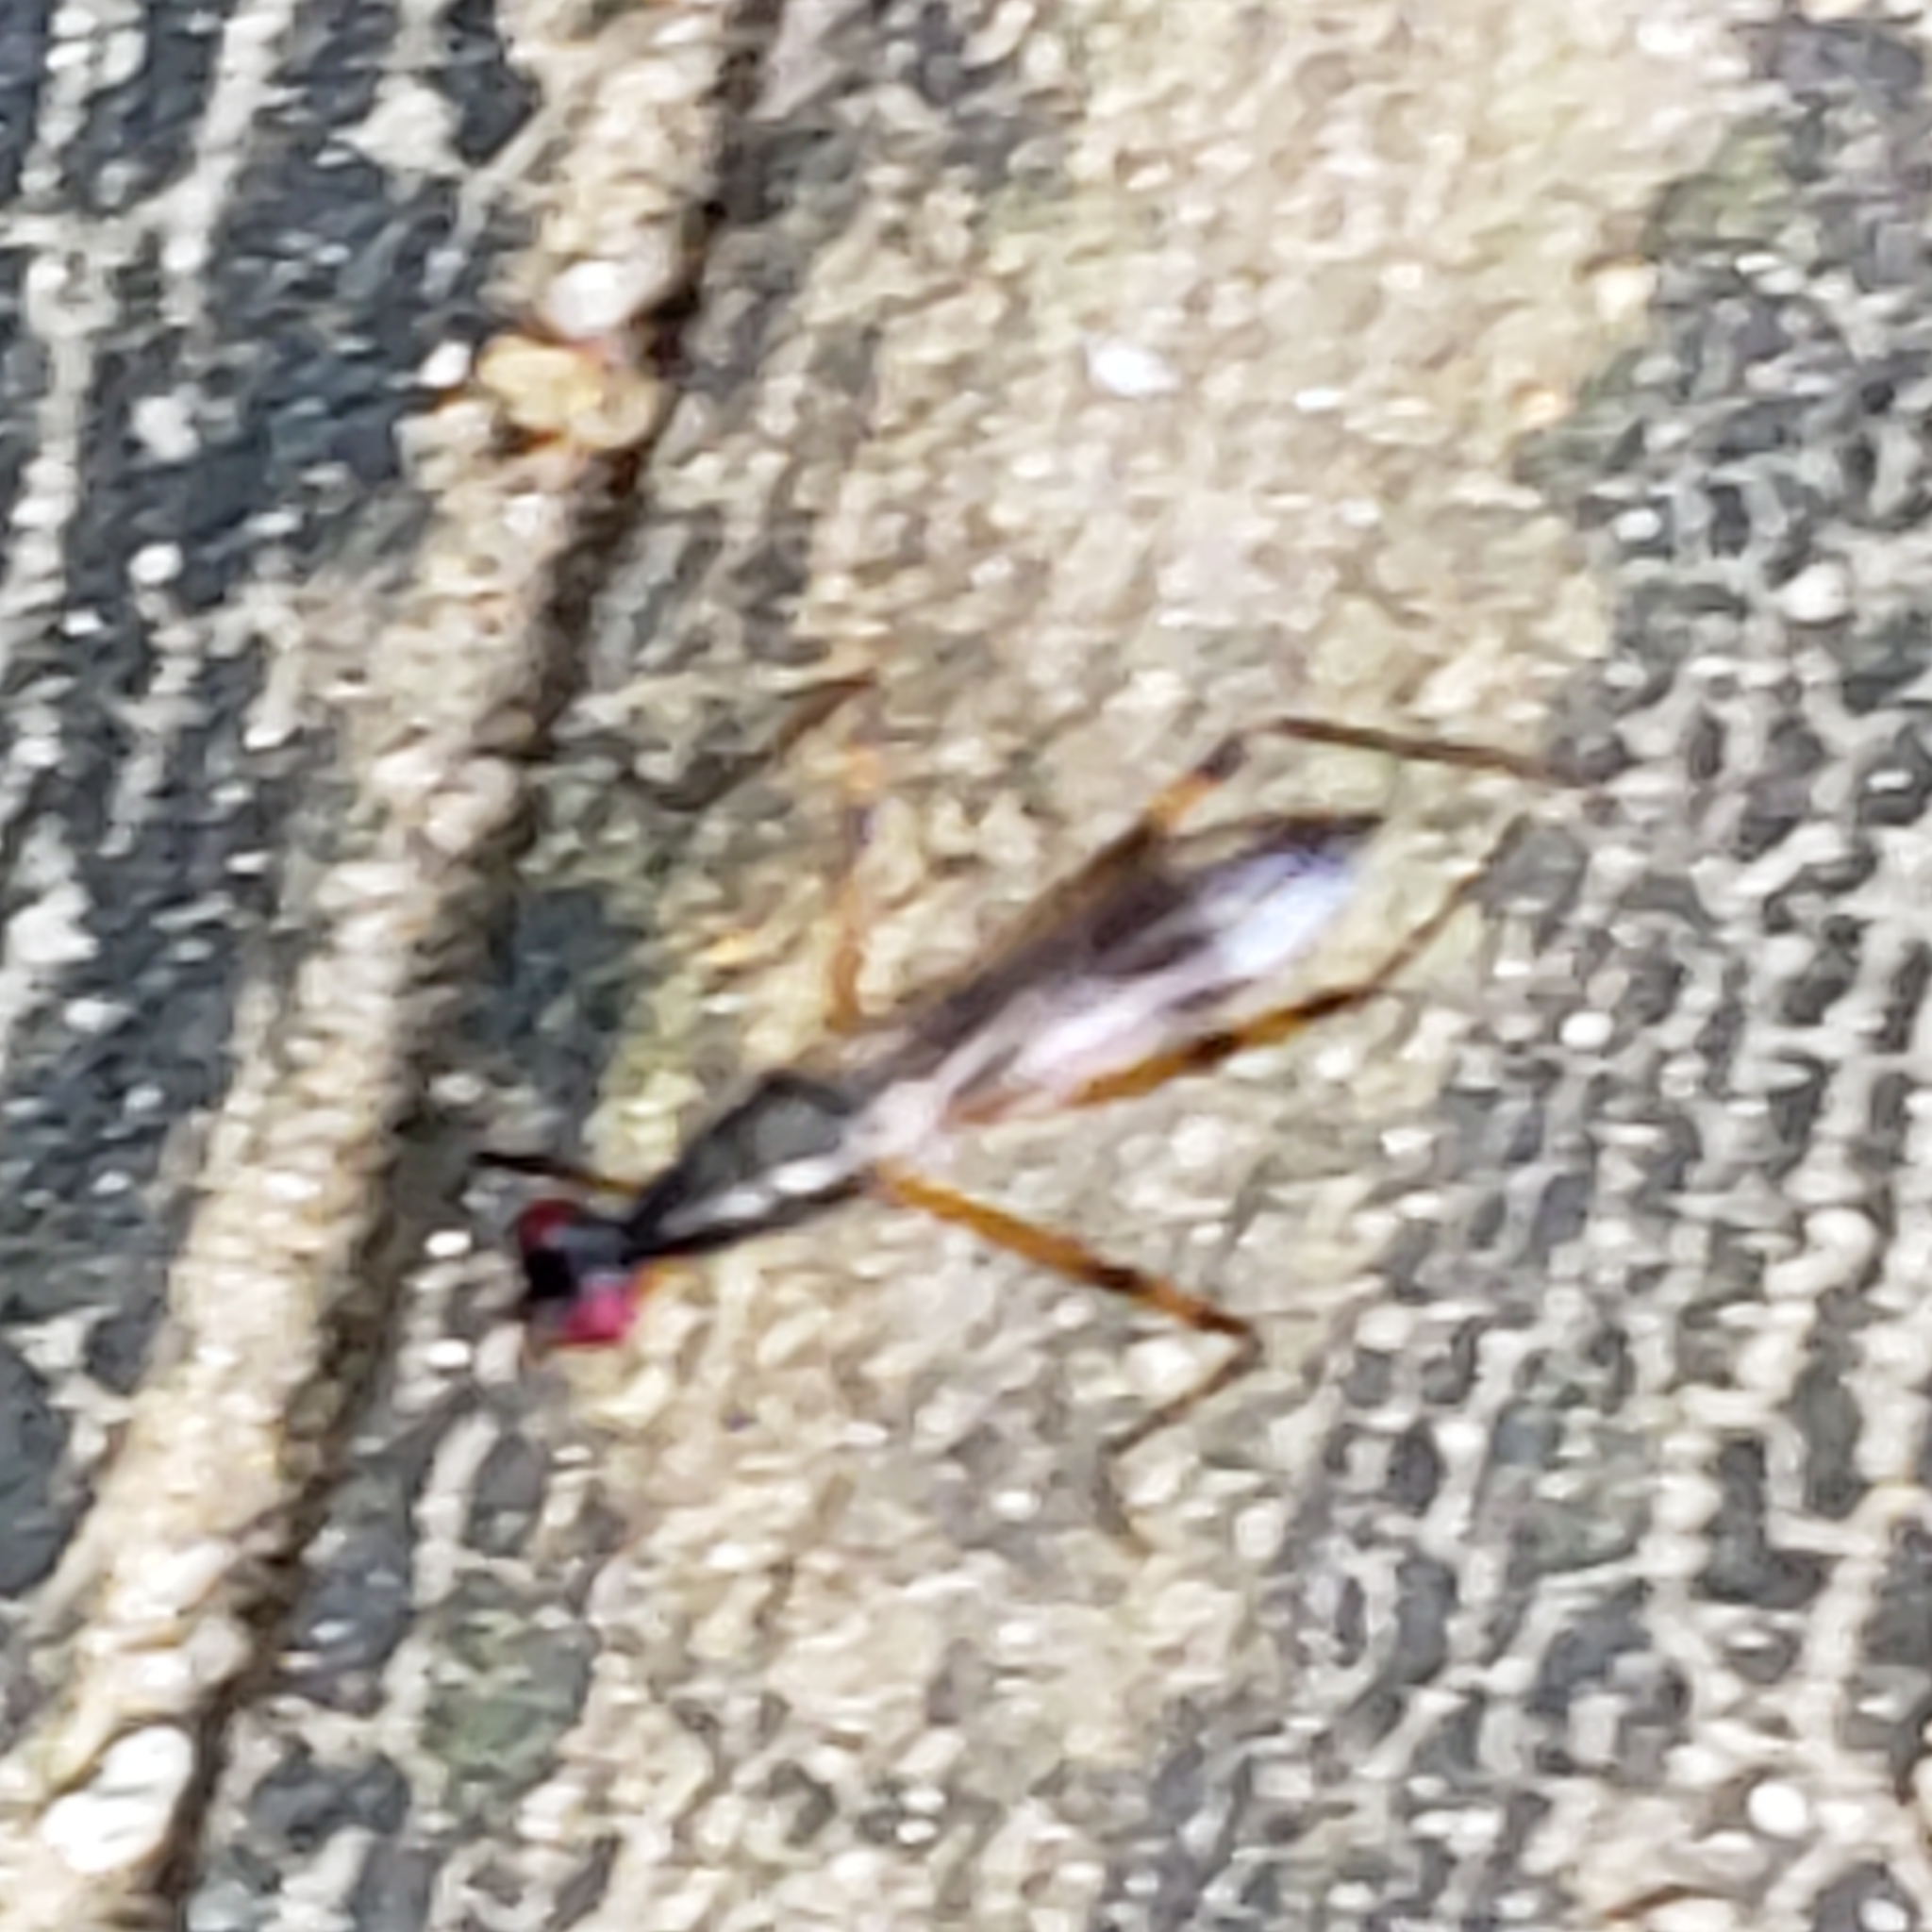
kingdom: Animalia
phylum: Arthropoda
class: Insecta
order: Diptera
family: Micropezidae
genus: Rainieria
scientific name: Rainieria antennaepes
